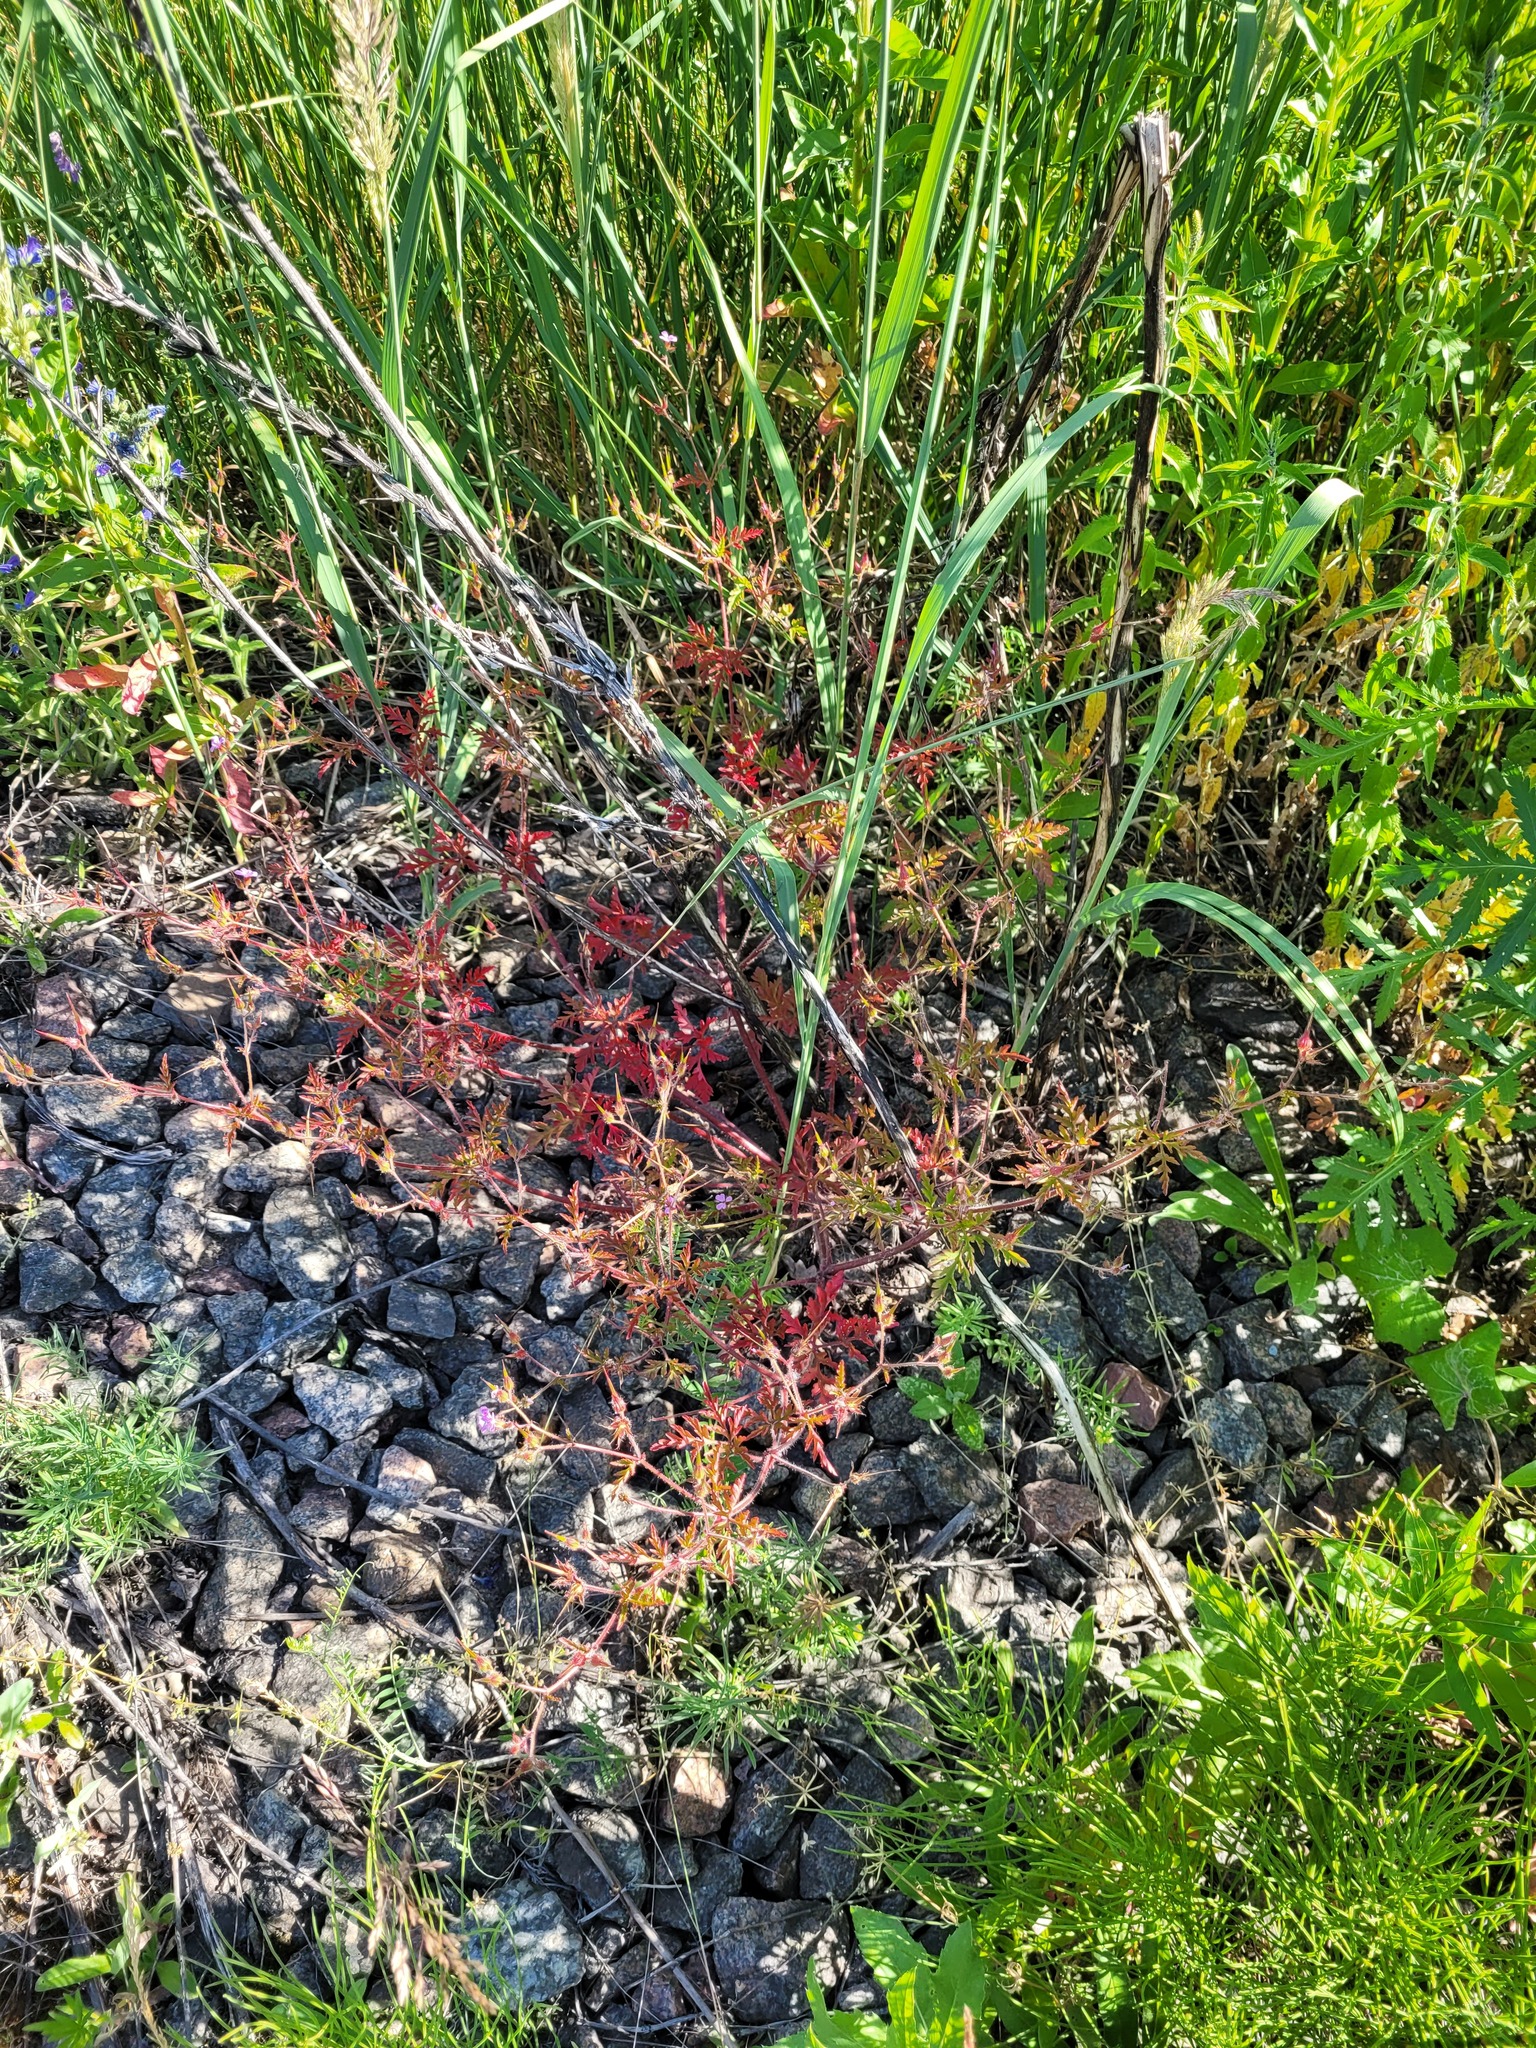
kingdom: Plantae
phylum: Tracheophyta
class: Magnoliopsida
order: Geraniales
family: Geraniaceae
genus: Geranium
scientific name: Geranium robertianum
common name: Herb-robert
